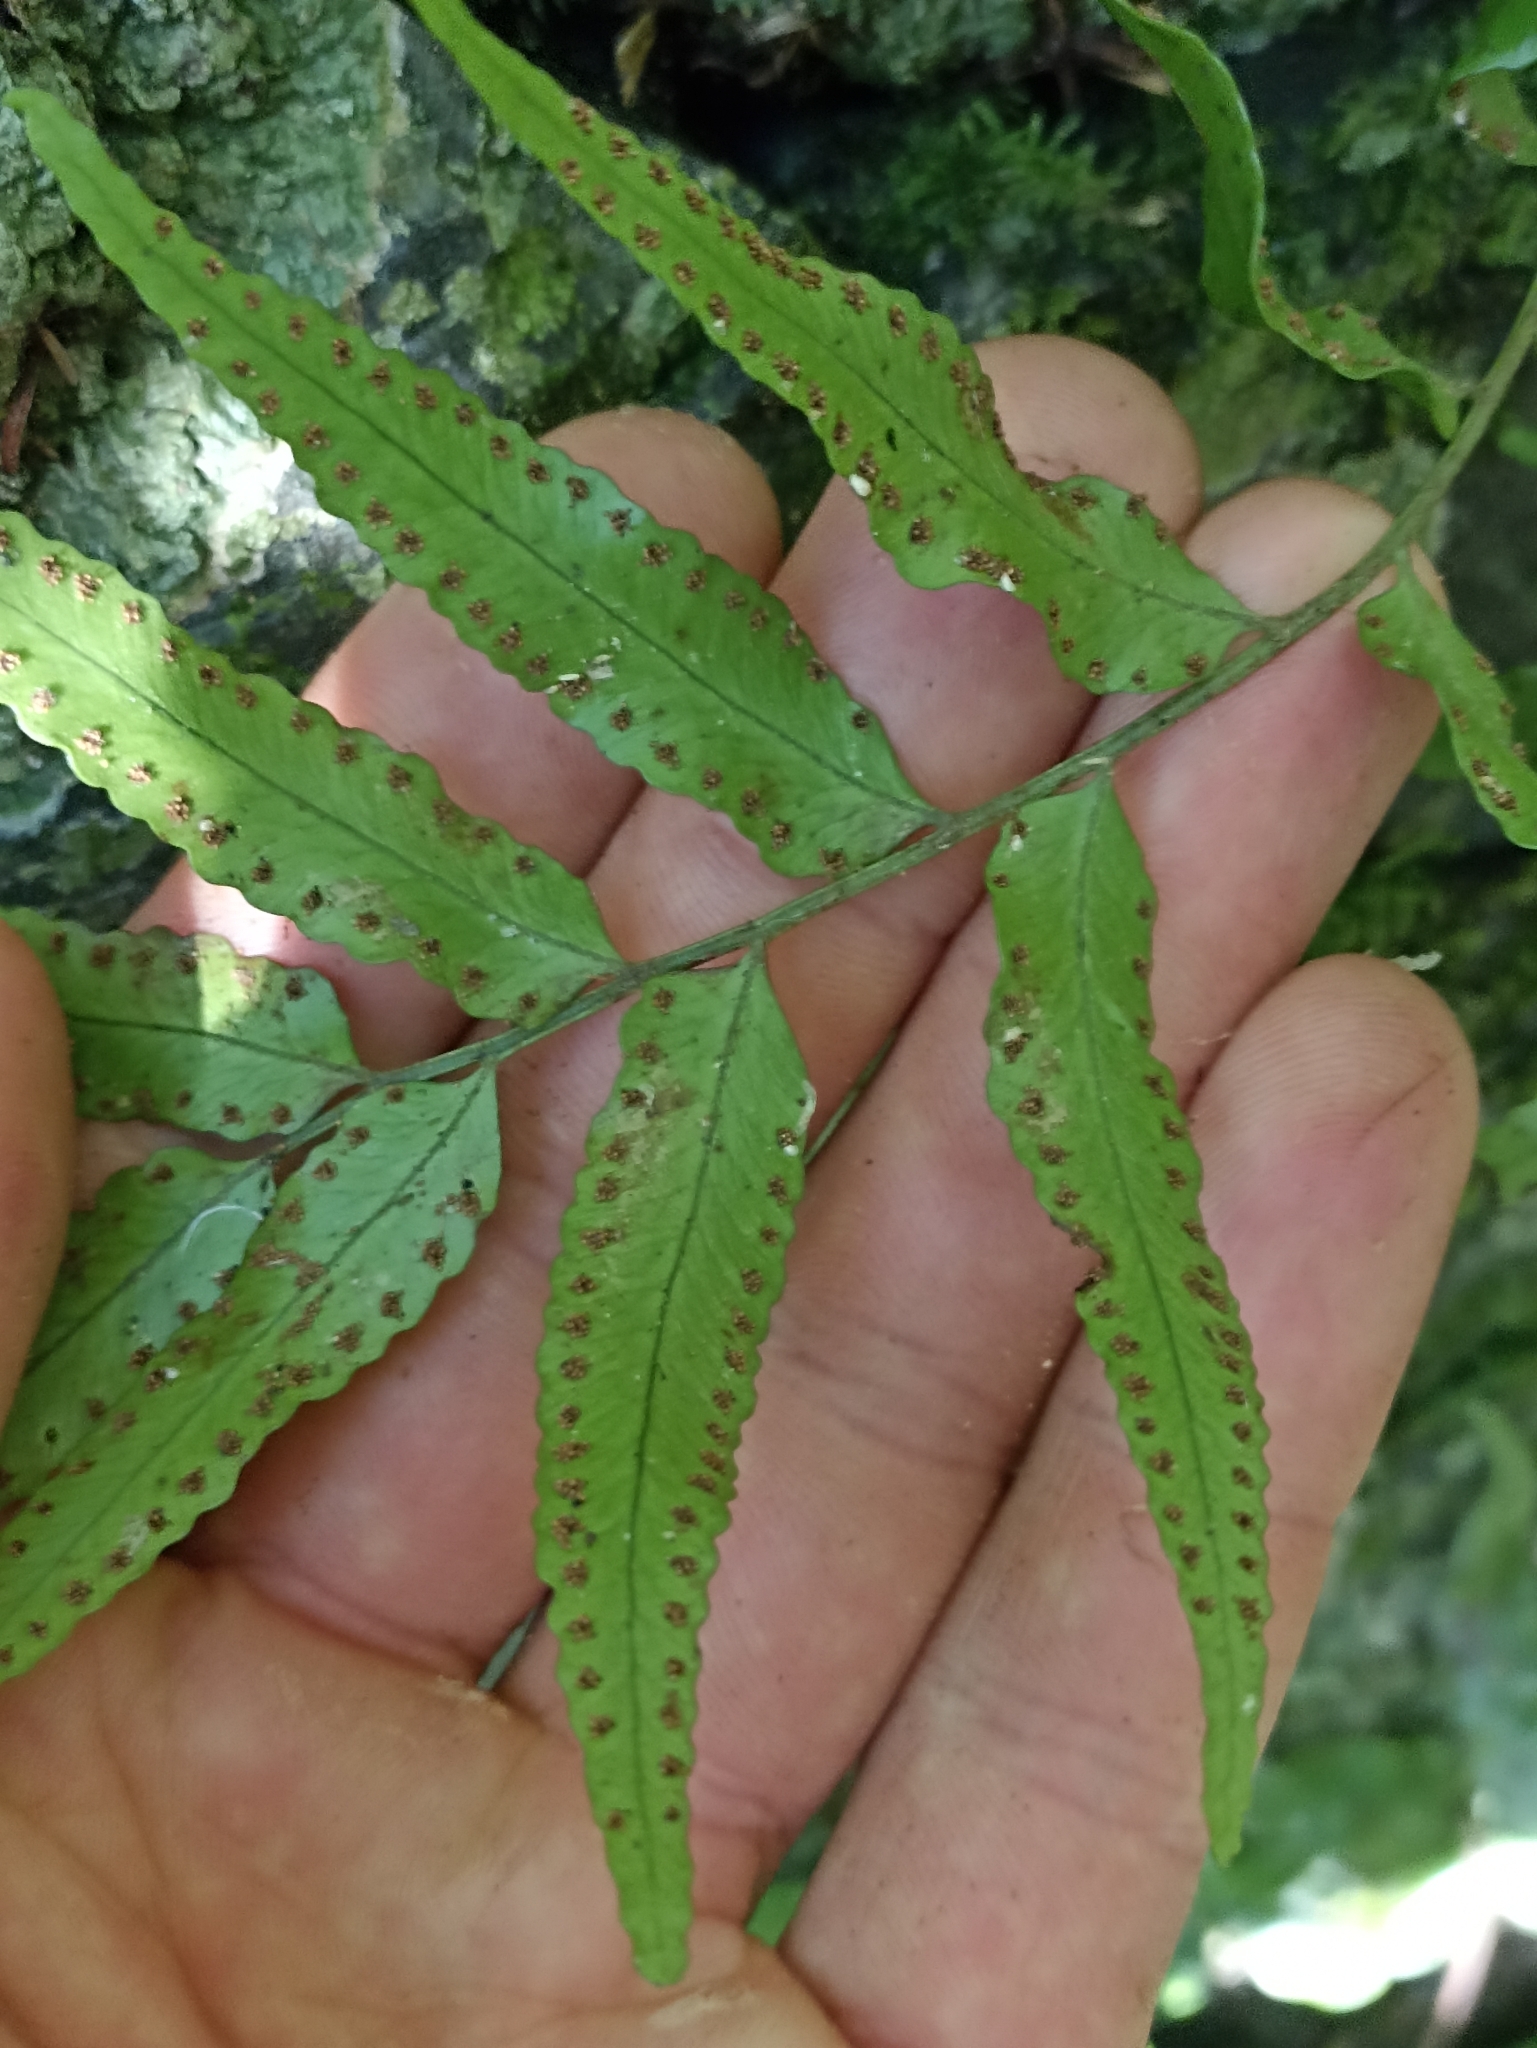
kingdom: Plantae
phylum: Tracheophyta
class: Polypodiopsida
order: Polypodiales
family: Tectariaceae
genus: Arthropteris
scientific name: Arthropteris tenella
